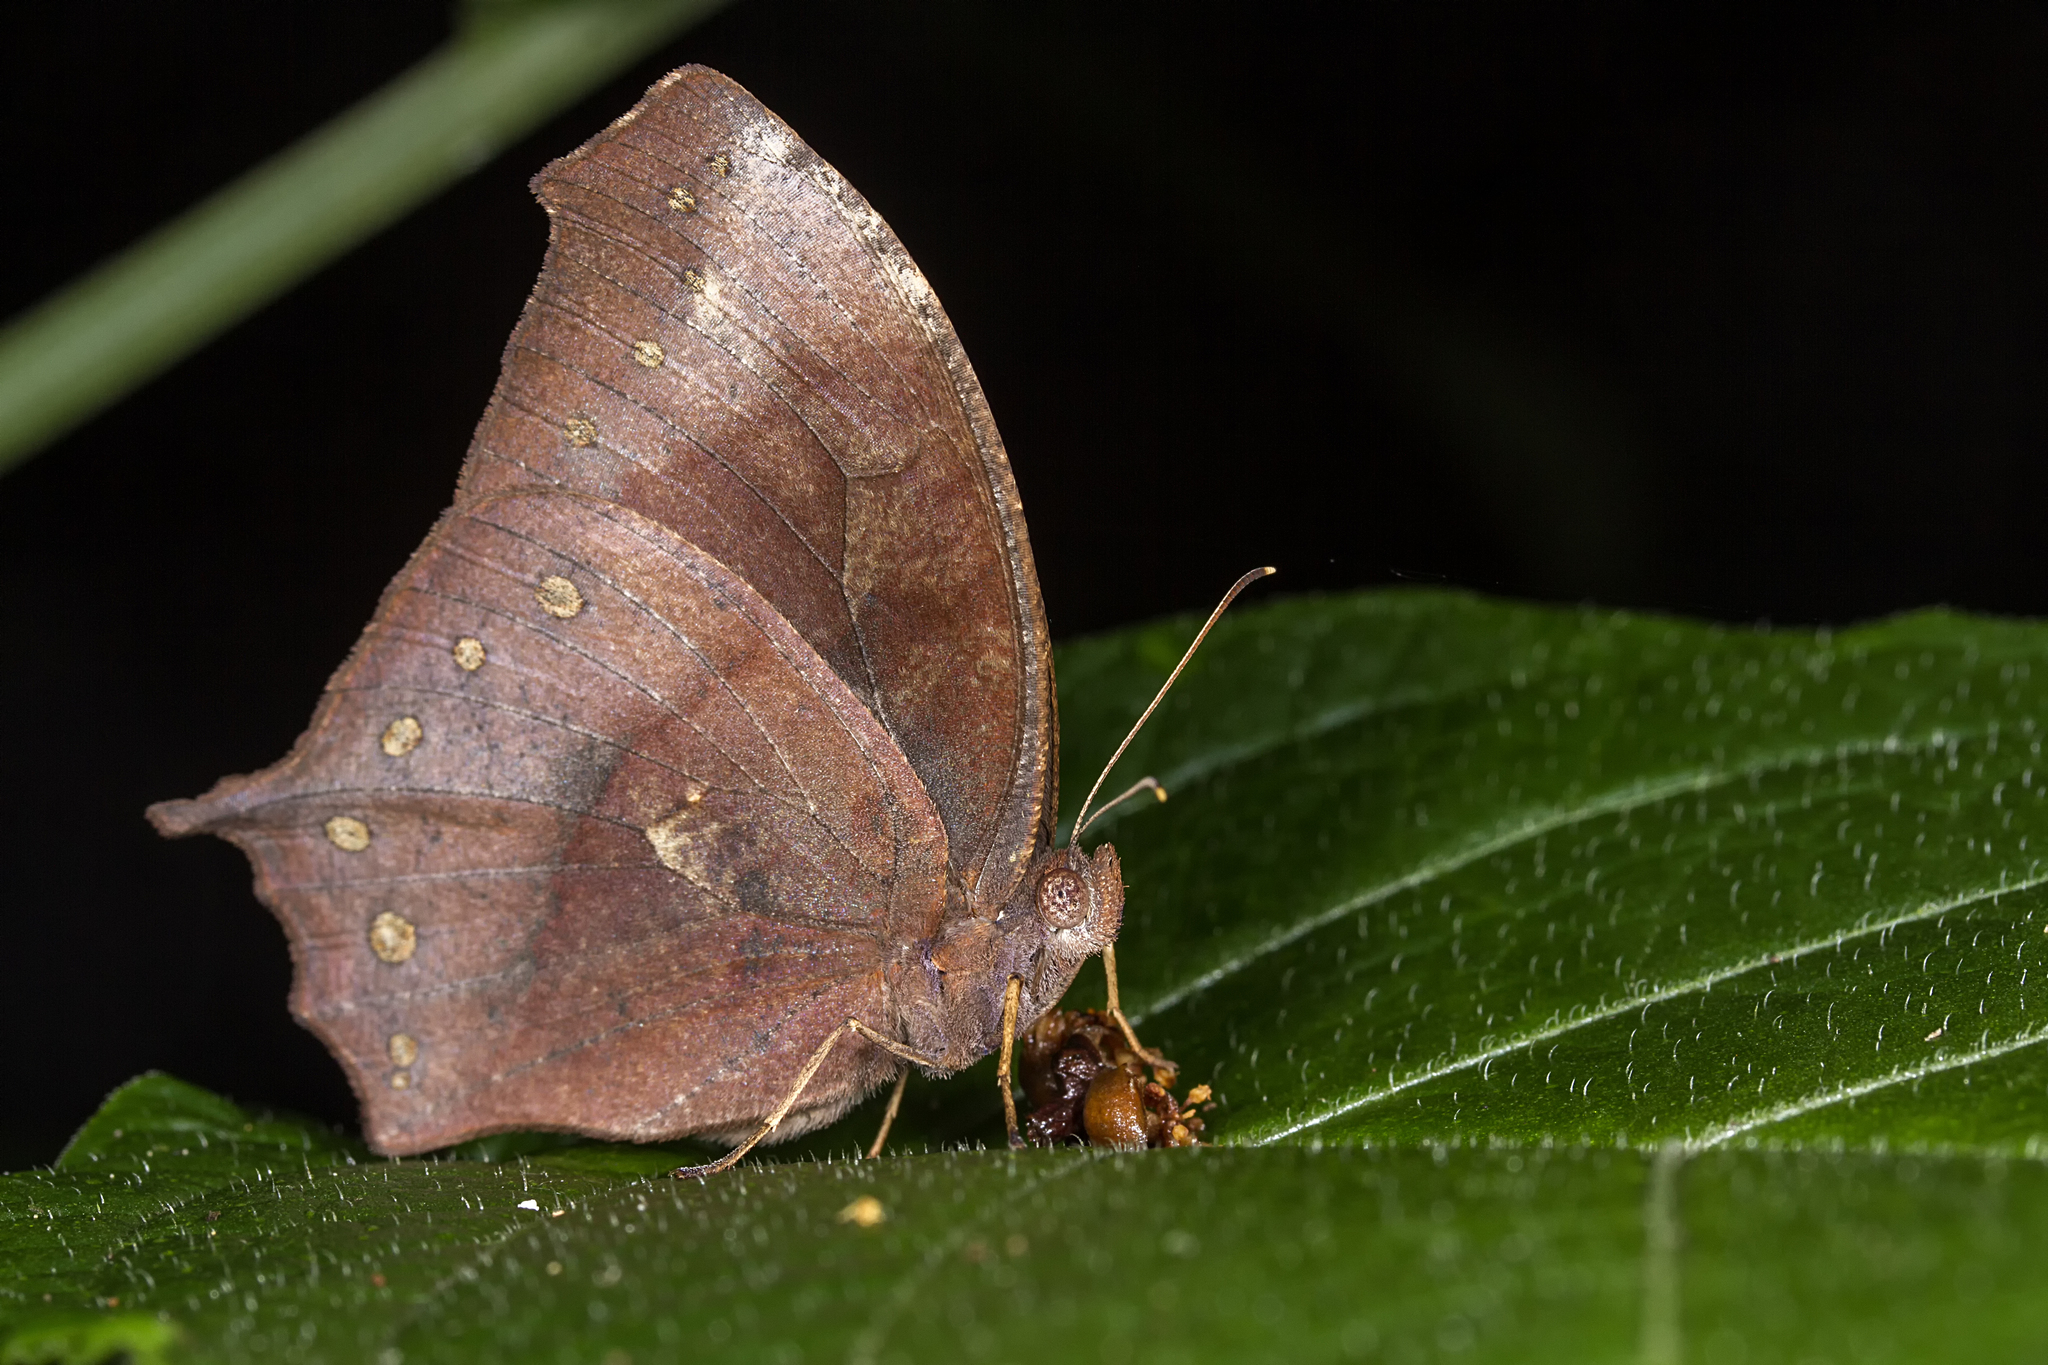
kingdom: Animalia
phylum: Arthropoda
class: Insecta
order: Lepidoptera
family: Nymphalidae
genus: Melanitis
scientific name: Melanitis phedima
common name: Dark evening brown
